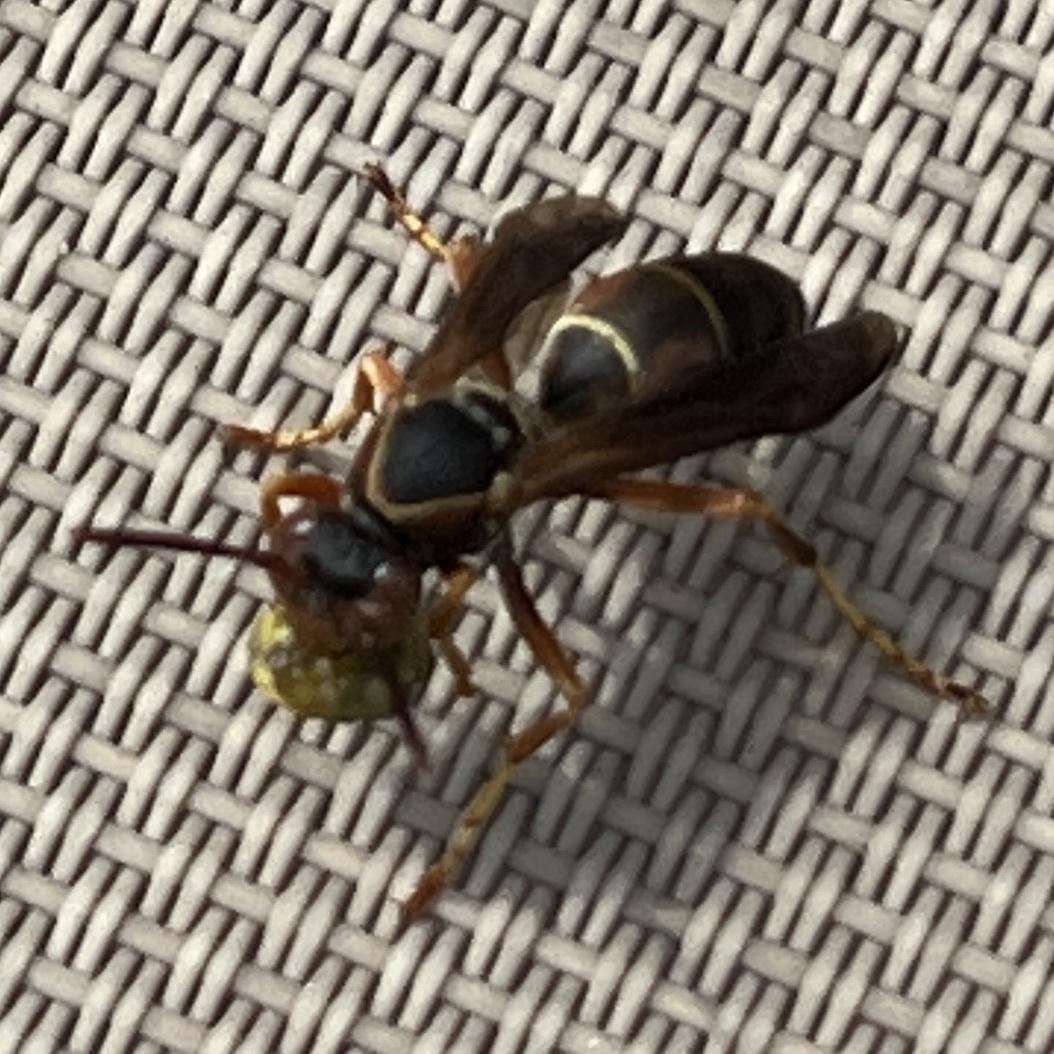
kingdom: Animalia
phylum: Arthropoda
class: Insecta
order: Hymenoptera
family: Eumenidae
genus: Polistes
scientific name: Polistes fuscatus
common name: Dark paper wasp
